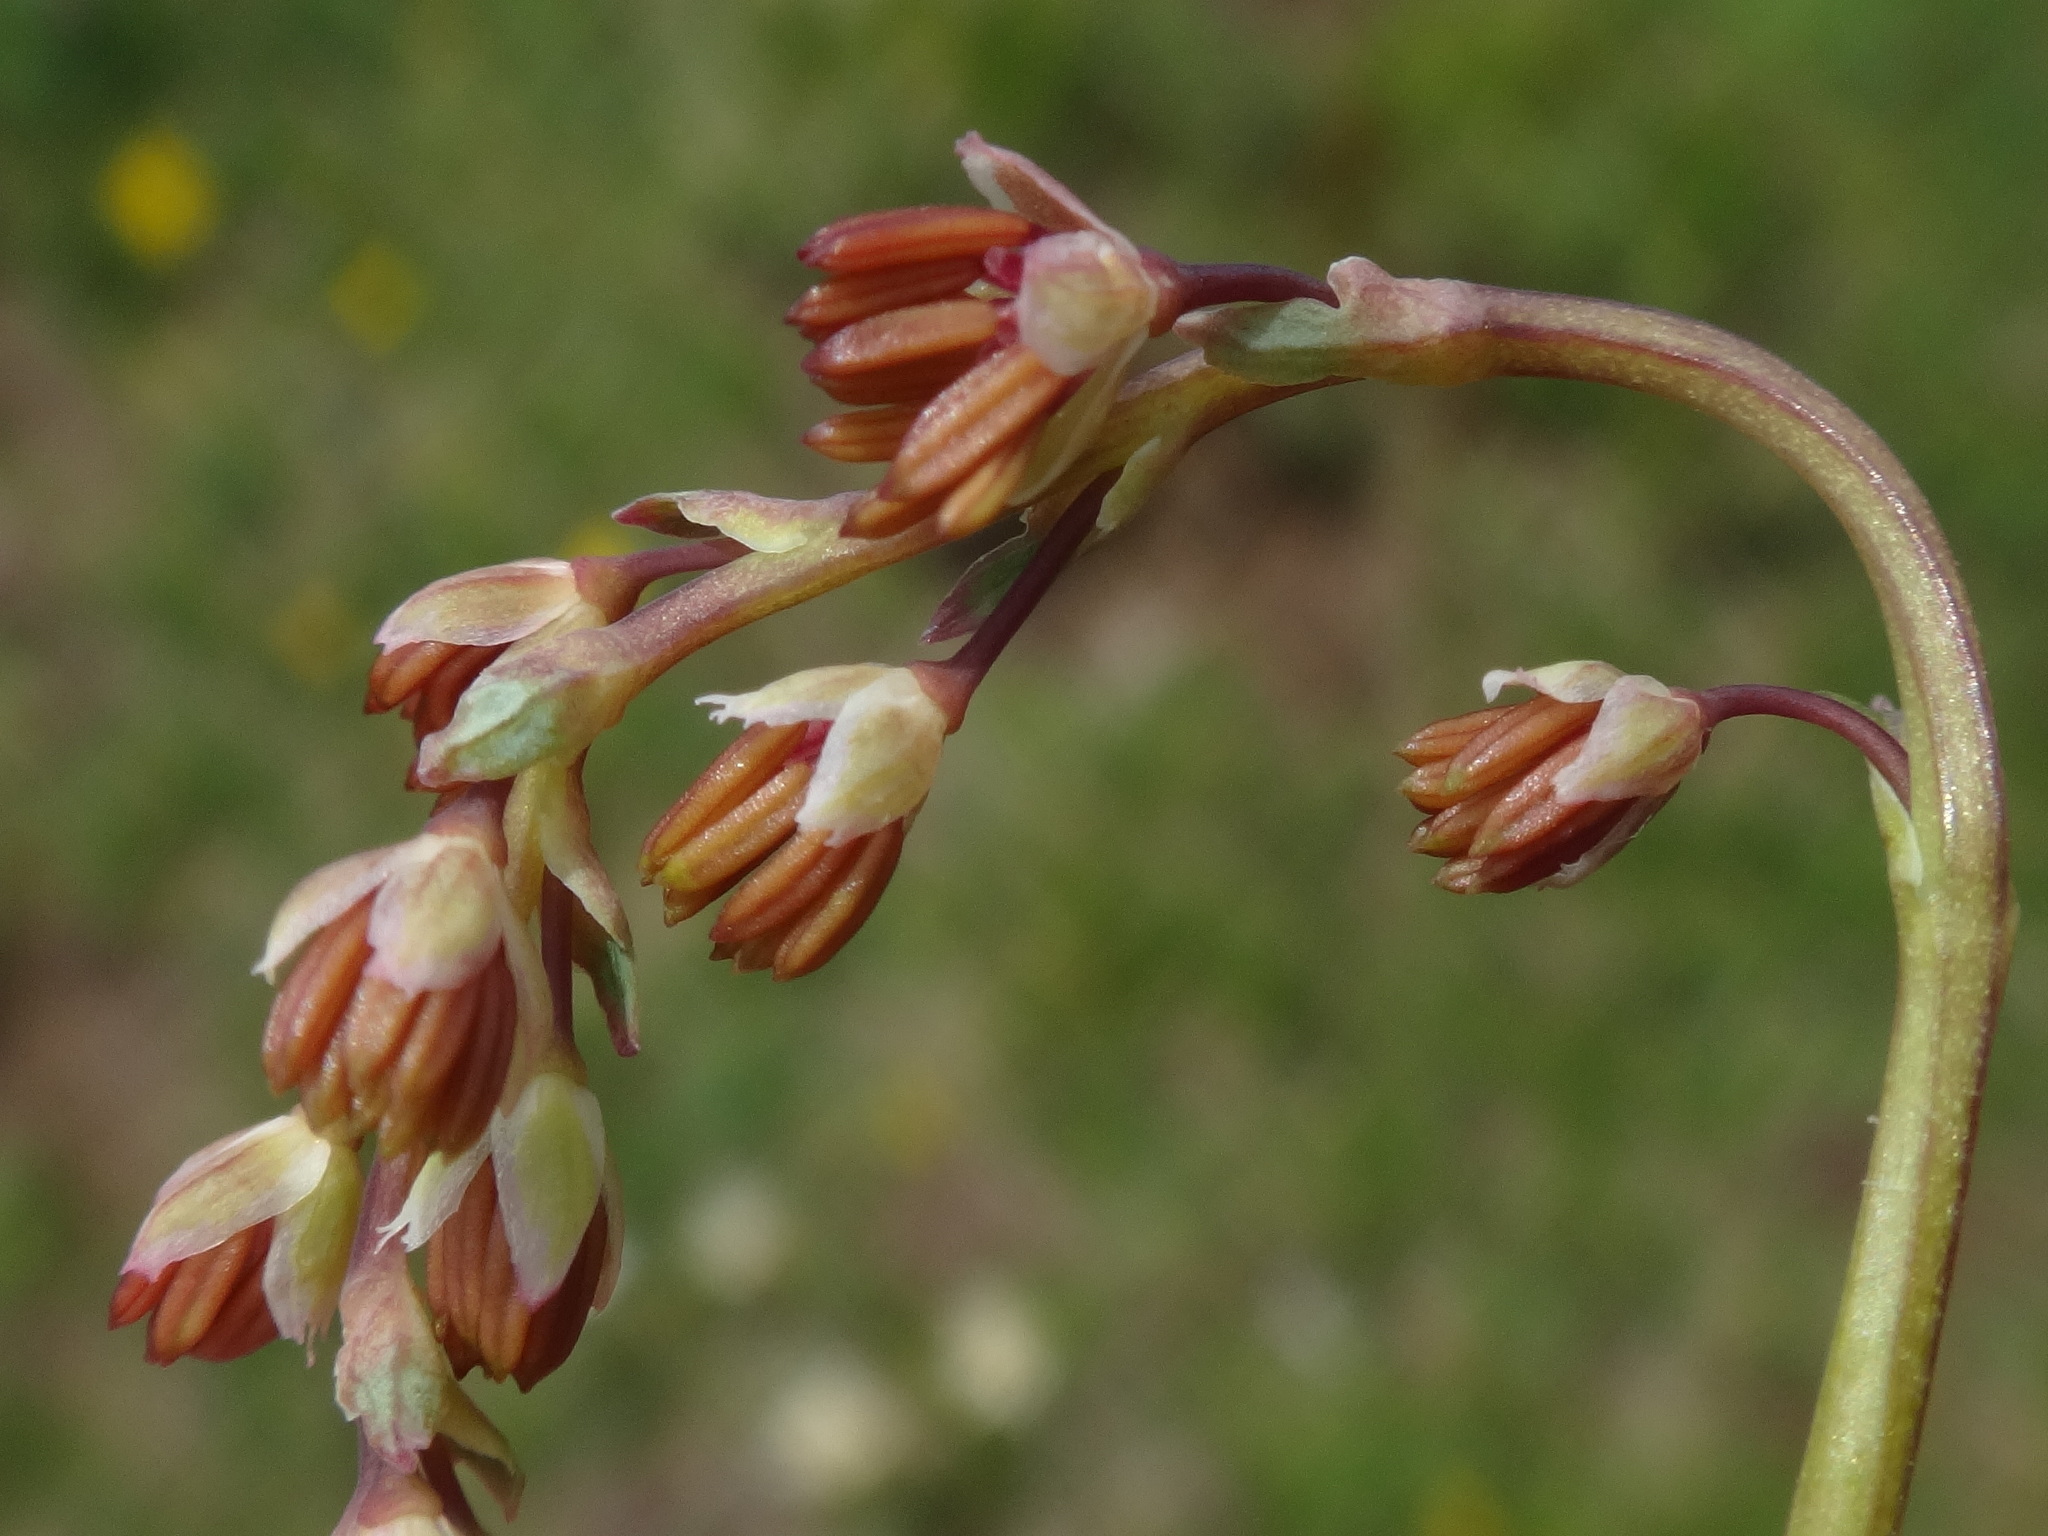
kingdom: Plantae
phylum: Tracheophyta
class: Magnoliopsida
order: Ranunculales
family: Ranunculaceae
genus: Thalictrum
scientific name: Thalictrum alpinum
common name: Alpine meadow-rue
